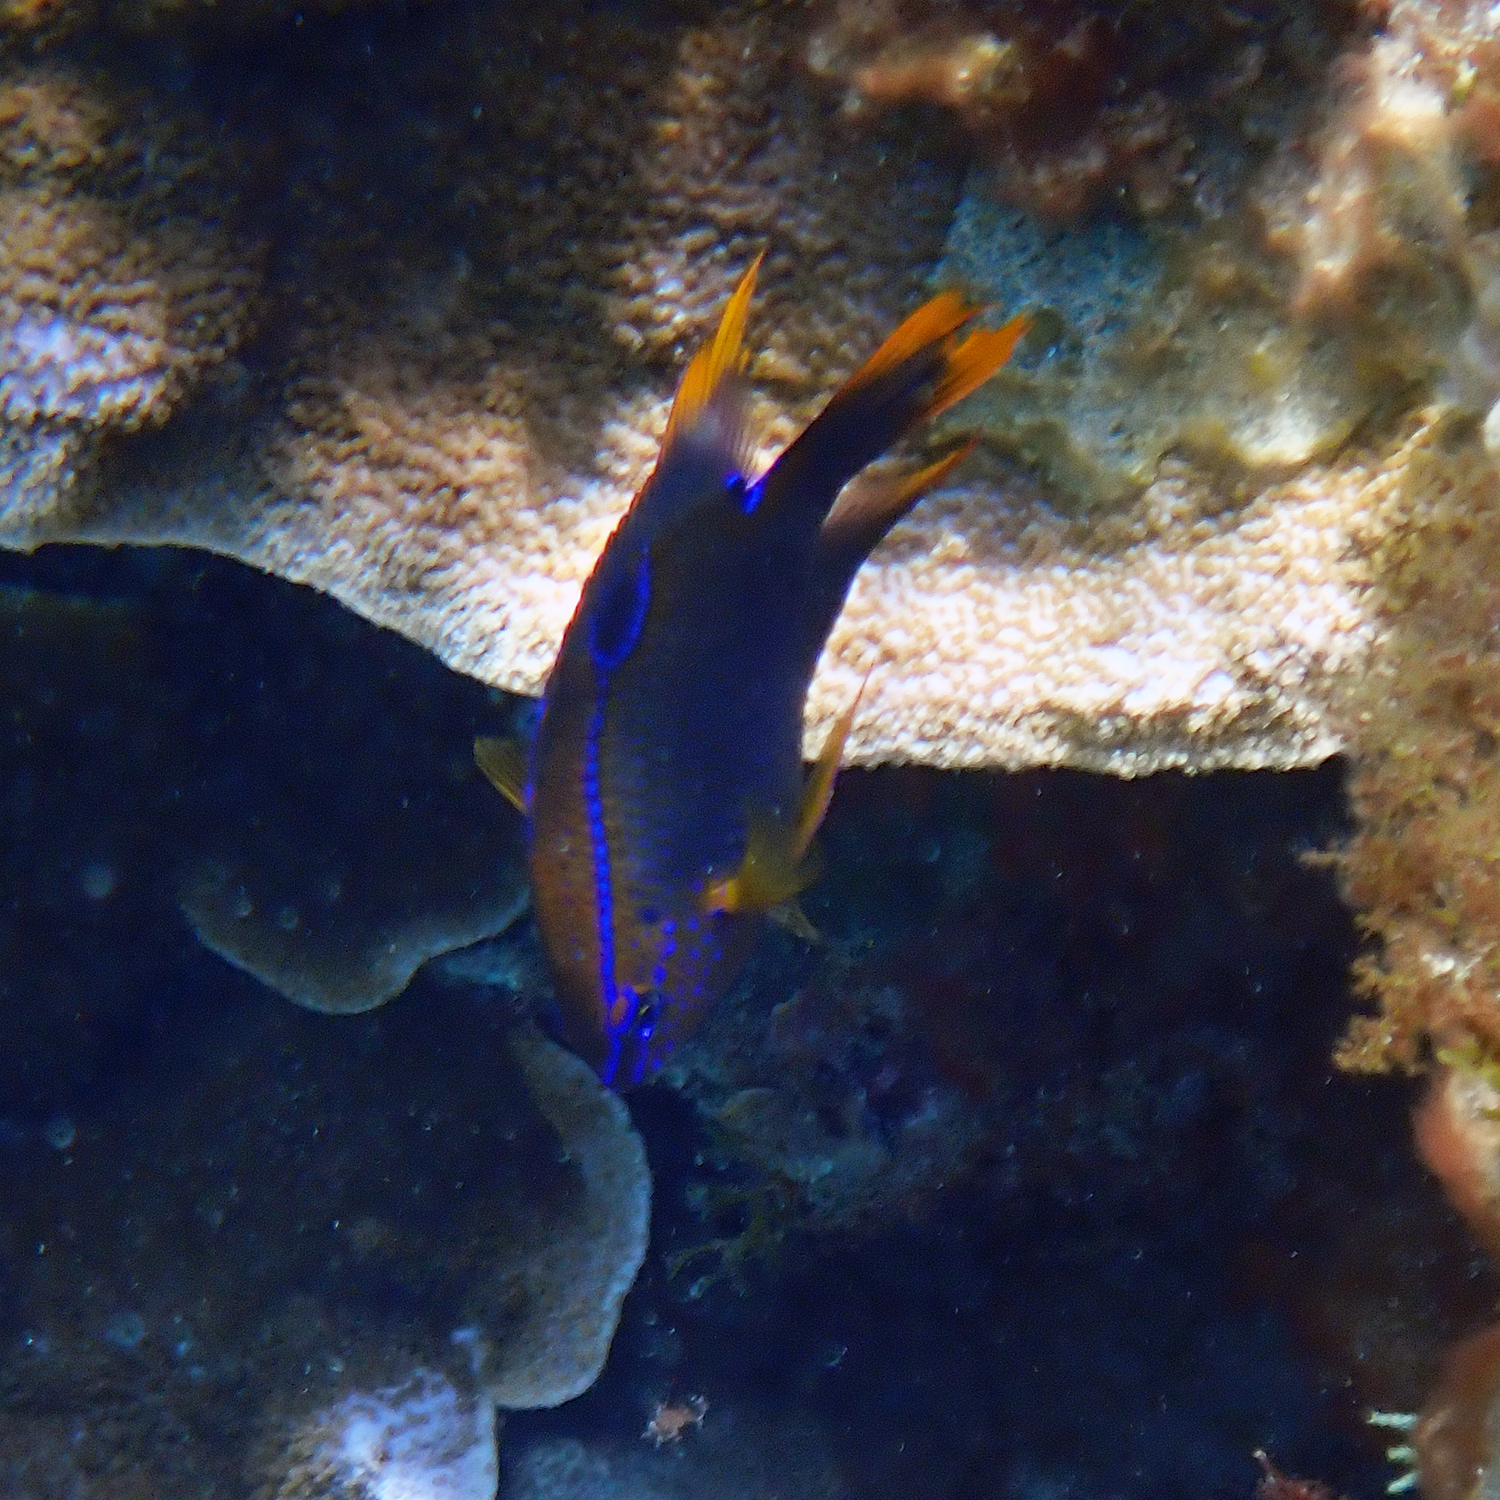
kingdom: Animalia
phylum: Chordata
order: Perciformes
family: Pomacentridae
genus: Neoglyphidodon
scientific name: Neoglyphidodon polyacanthus
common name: Multi-spined damsel
